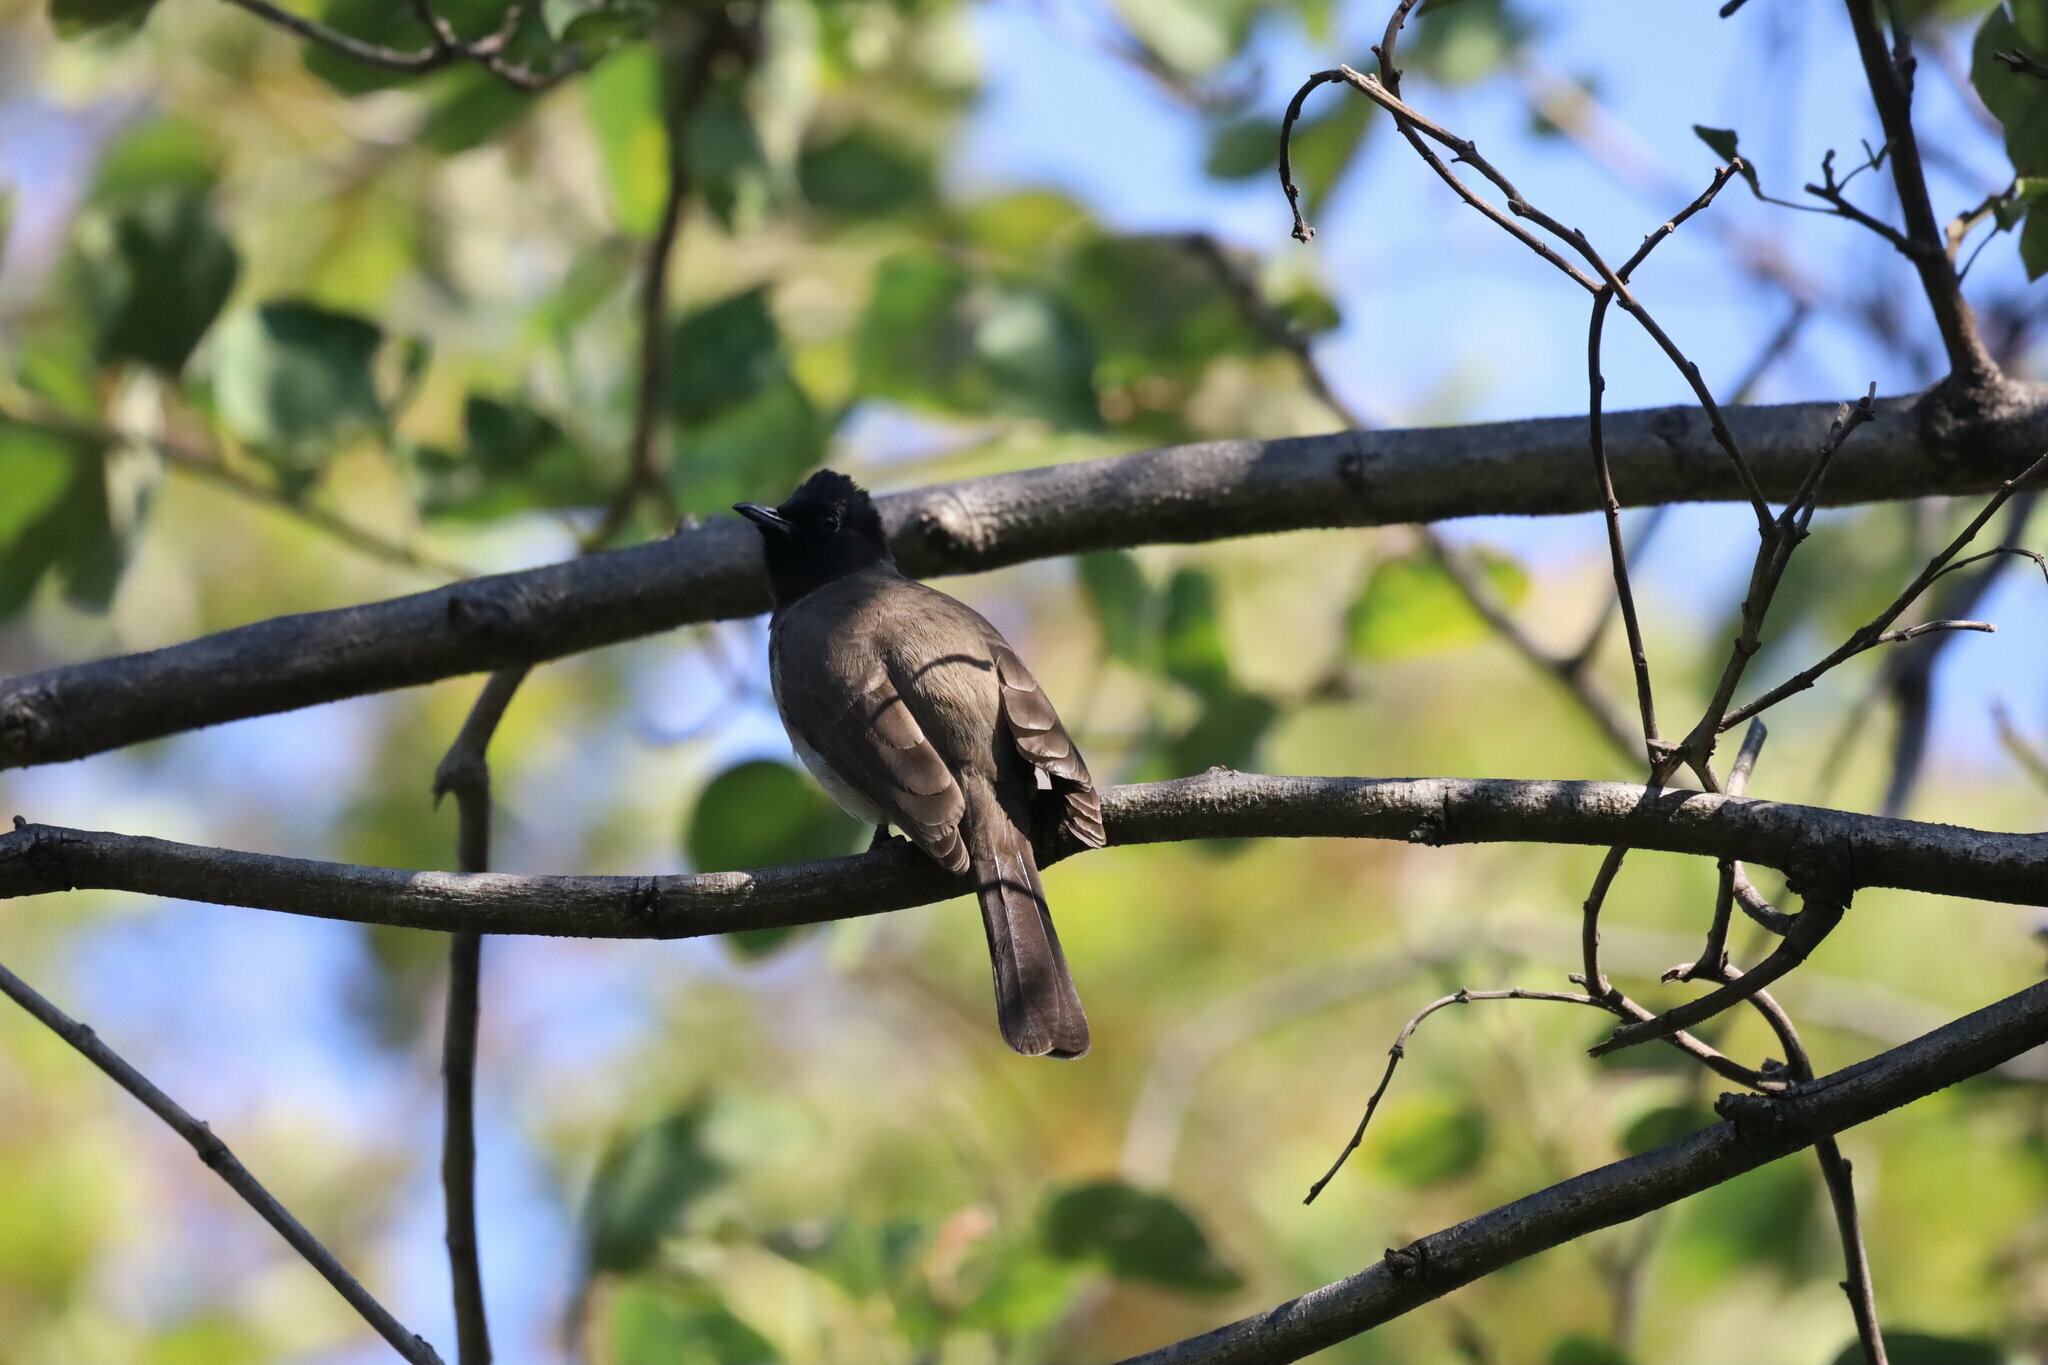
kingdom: Animalia
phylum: Chordata
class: Aves
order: Passeriformes
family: Pycnonotidae
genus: Pycnonotus
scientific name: Pycnonotus barbatus
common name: Common bulbul
